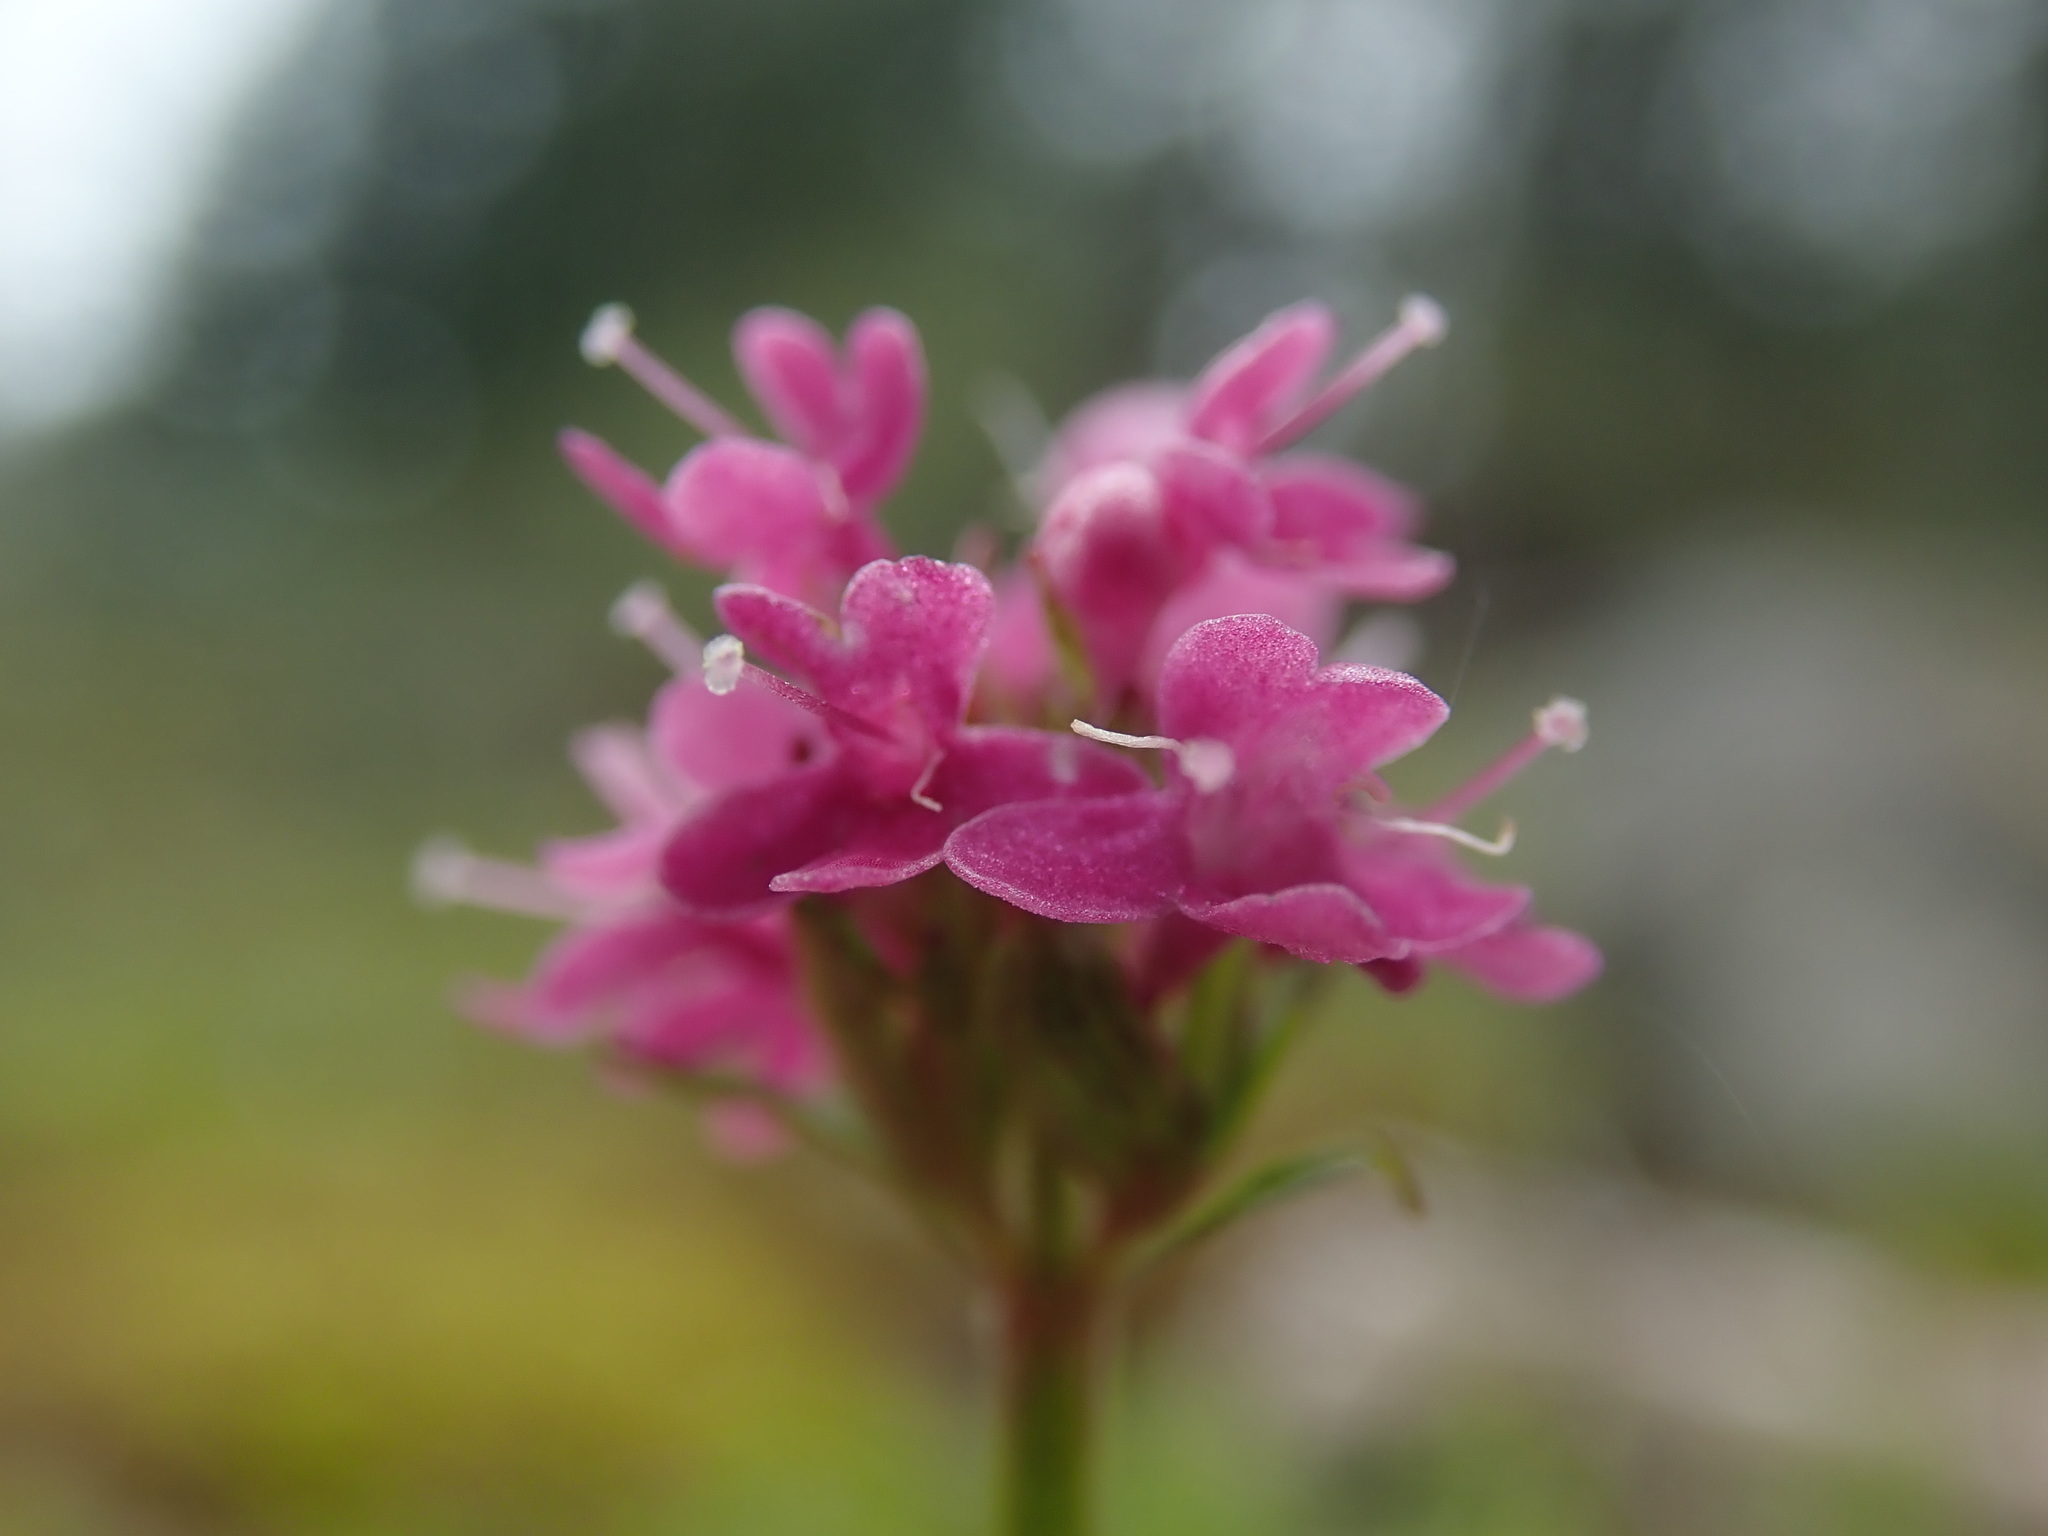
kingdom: Plantae
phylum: Tracheophyta
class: Magnoliopsida
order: Dipsacales
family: Caprifoliaceae
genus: Plectritis
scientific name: Plectritis congesta
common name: Pink plectritis
